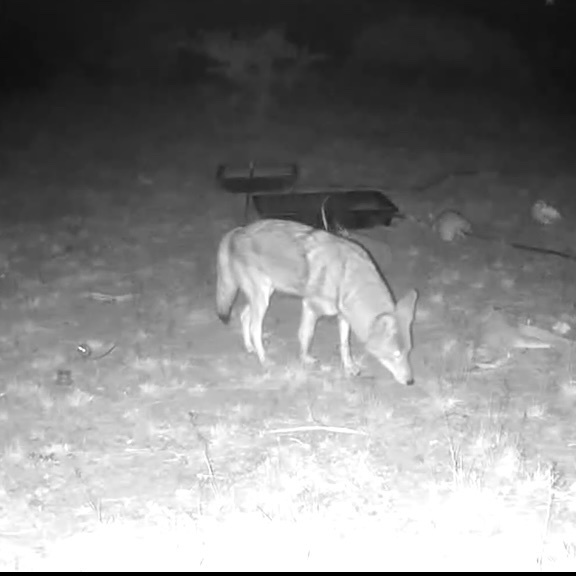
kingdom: Animalia
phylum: Chordata
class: Mammalia
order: Carnivora
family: Canidae
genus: Canis
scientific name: Canis latrans
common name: Coyote
